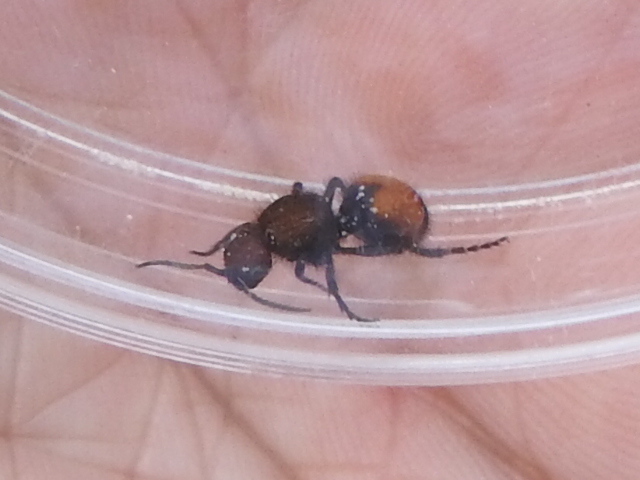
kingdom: Animalia
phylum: Arthropoda
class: Insecta
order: Hymenoptera
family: Mutillidae
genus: Dasymutilla
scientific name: Dasymutilla
